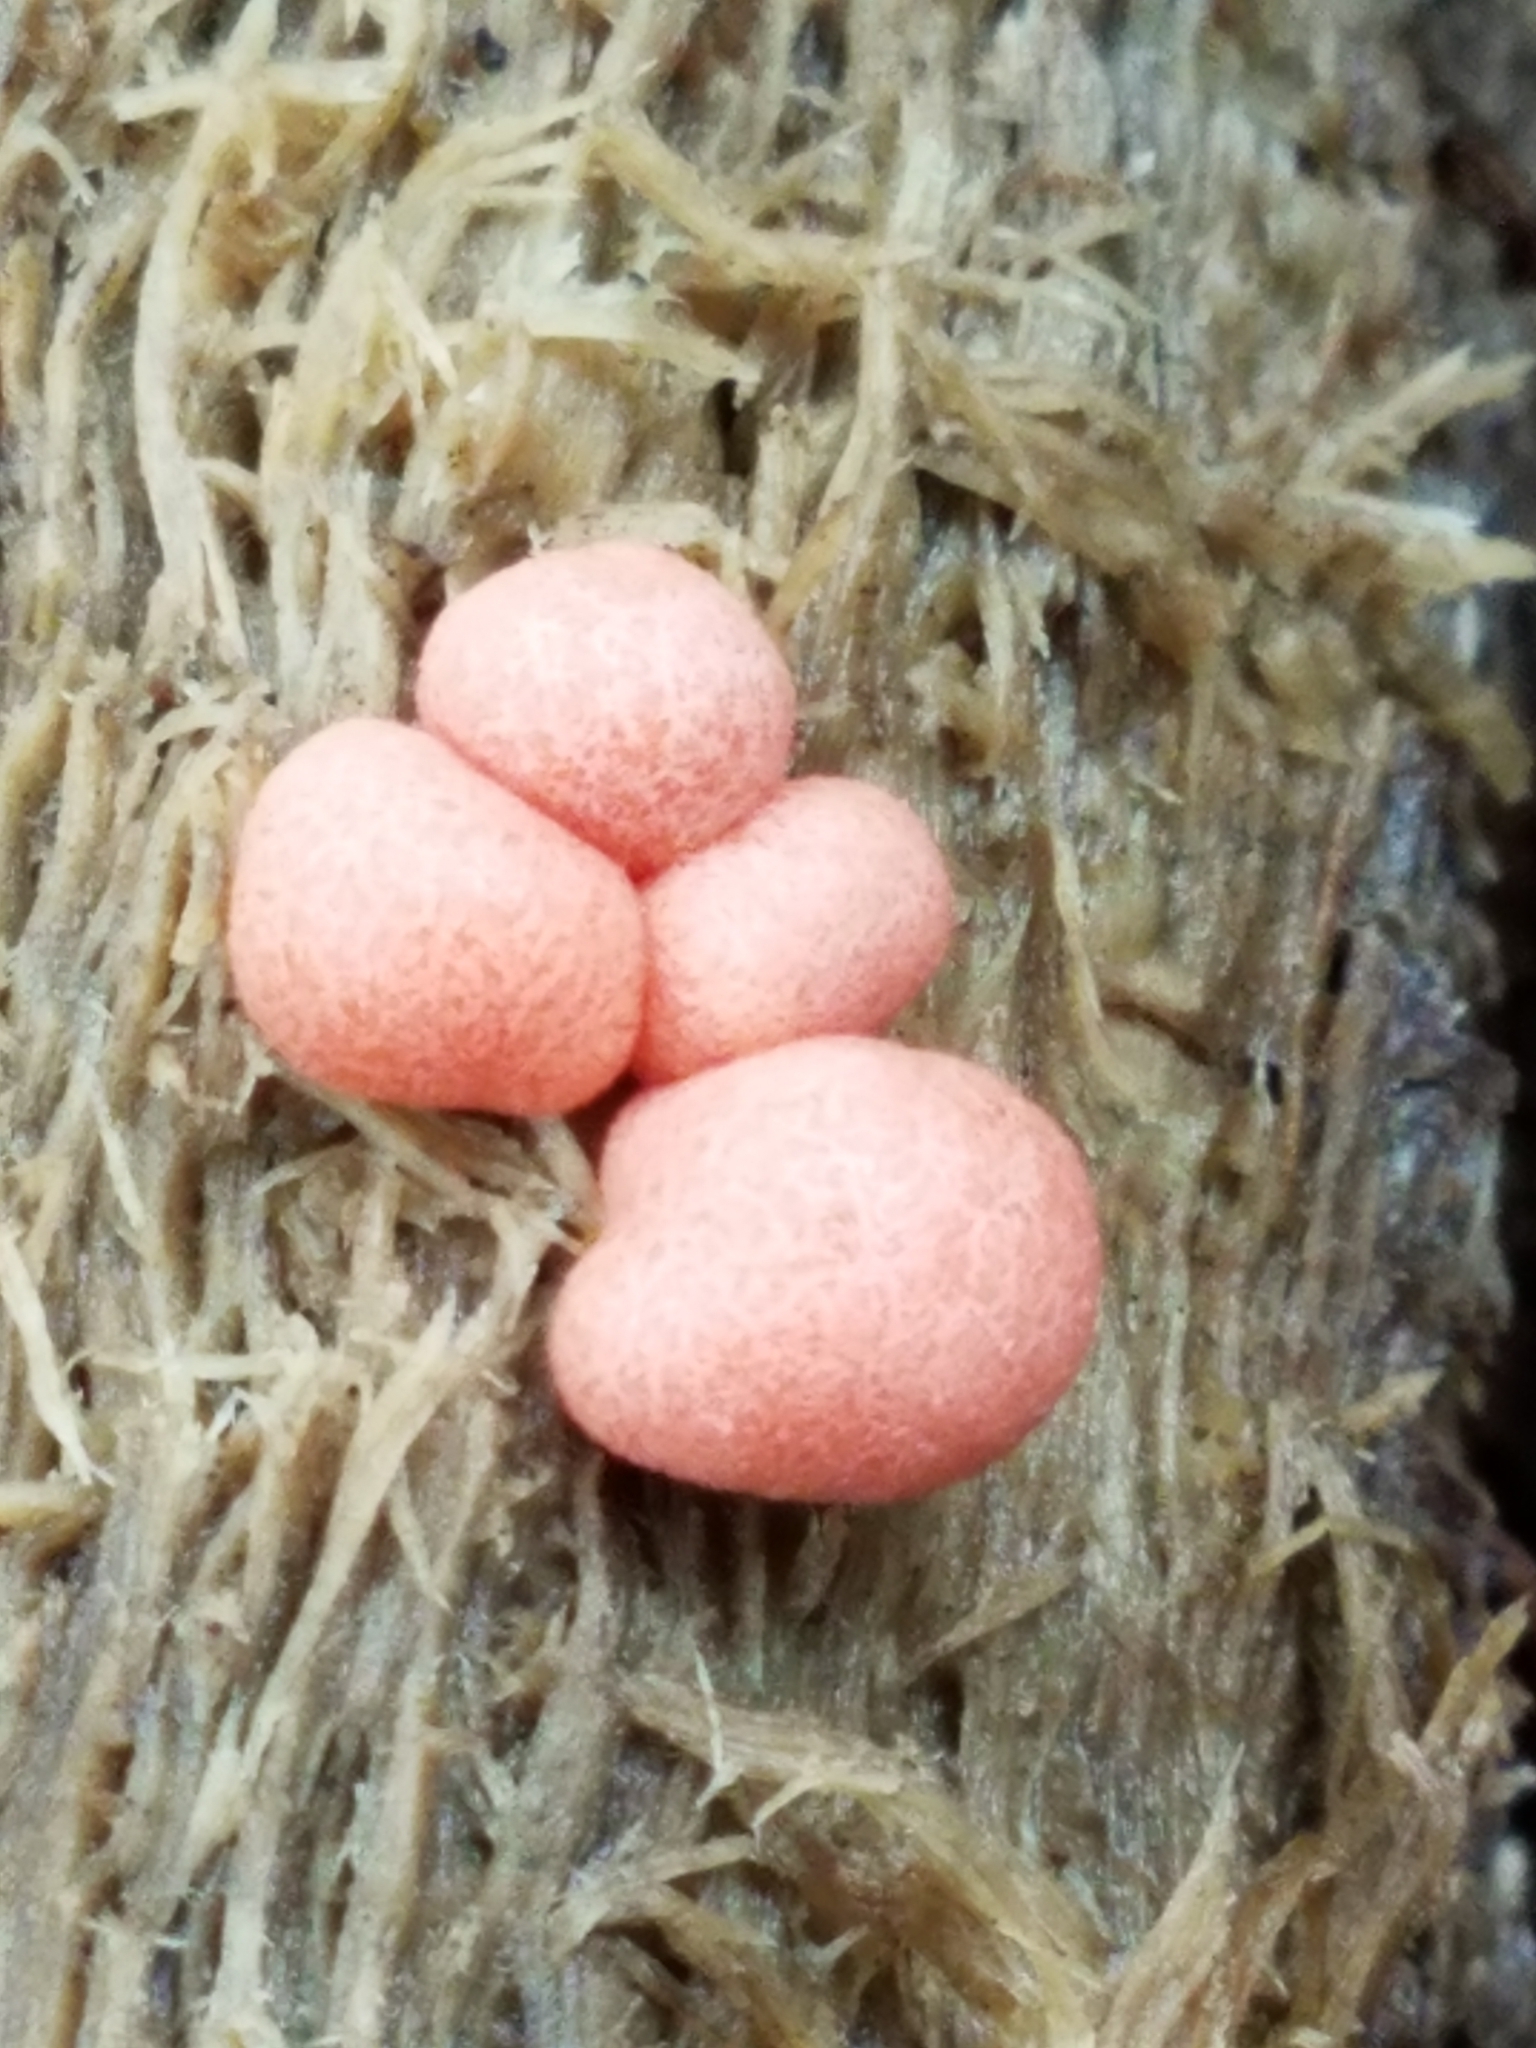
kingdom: Protozoa
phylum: Mycetozoa
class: Myxomycetes
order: Cribrariales
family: Tubiferaceae
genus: Lycogala
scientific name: Lycogala epidendrum
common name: Wolf's milk
